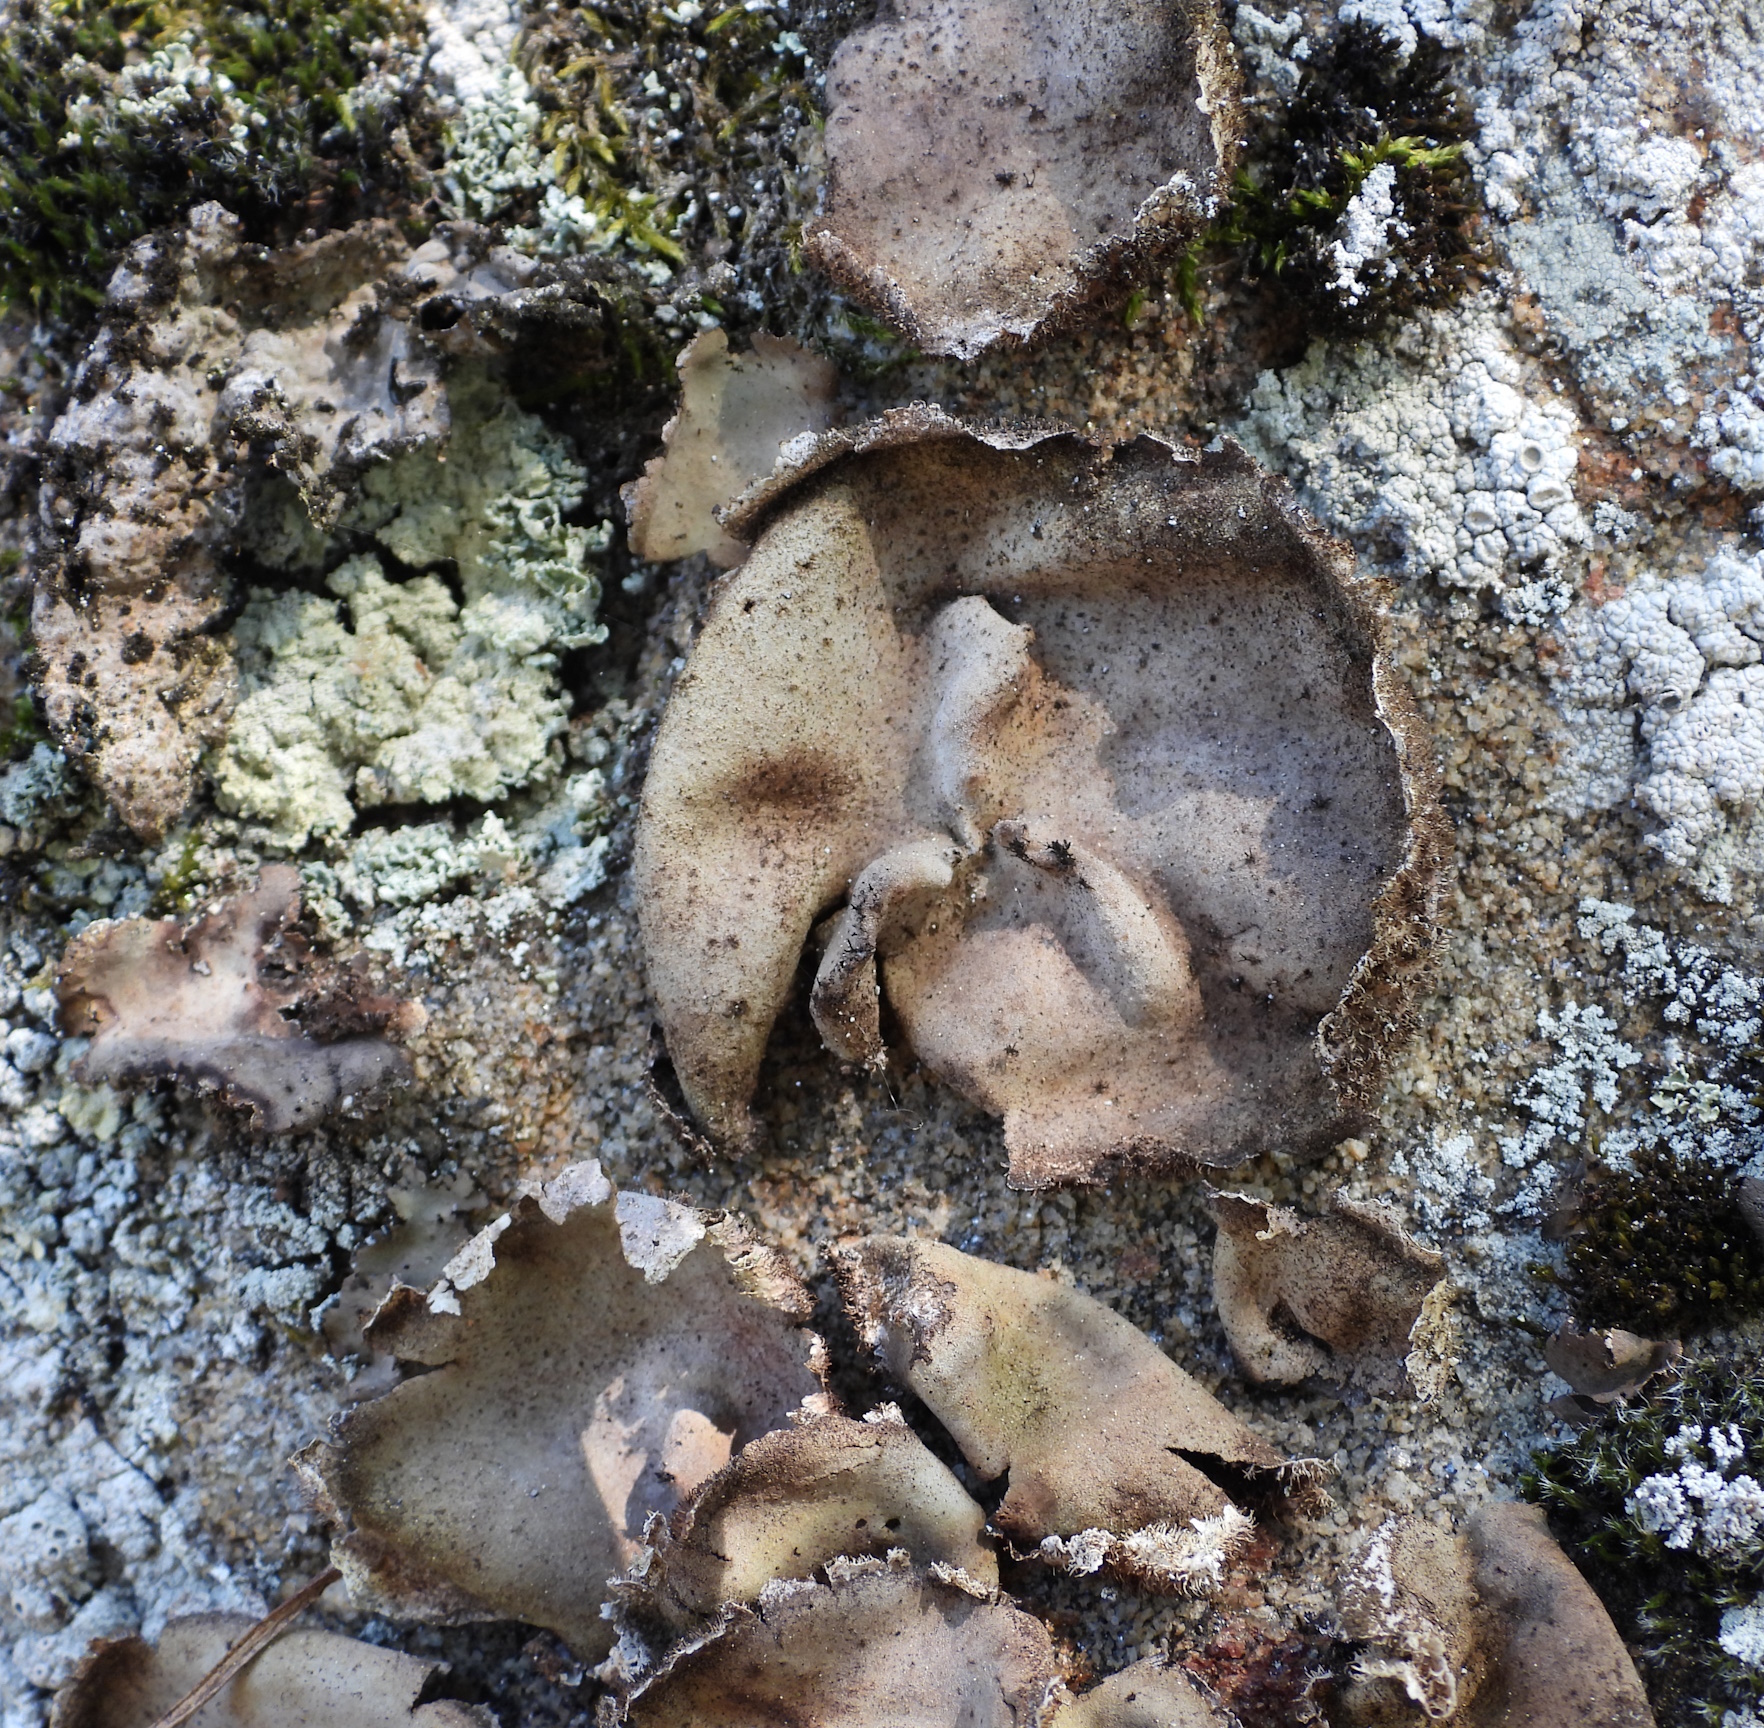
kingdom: Fungi
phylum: Ascomycota
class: Lecanoromycetes
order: Umbilicariales
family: Umbilicariaceae
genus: Umbilicaria
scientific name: Umbilicaria hirsuta
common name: Granulating rocktripe lichen
